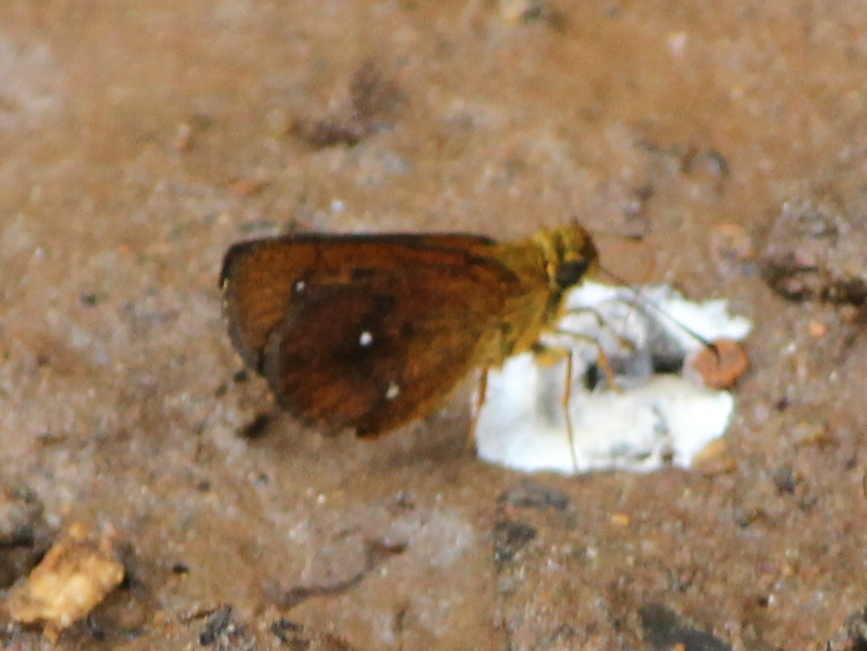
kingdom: Animalia
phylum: Arthropoda
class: Insecta
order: Lepidoptera
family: Hesperiidae
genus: Iambrix
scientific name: Iambrix salsala
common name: Chestnut bob
